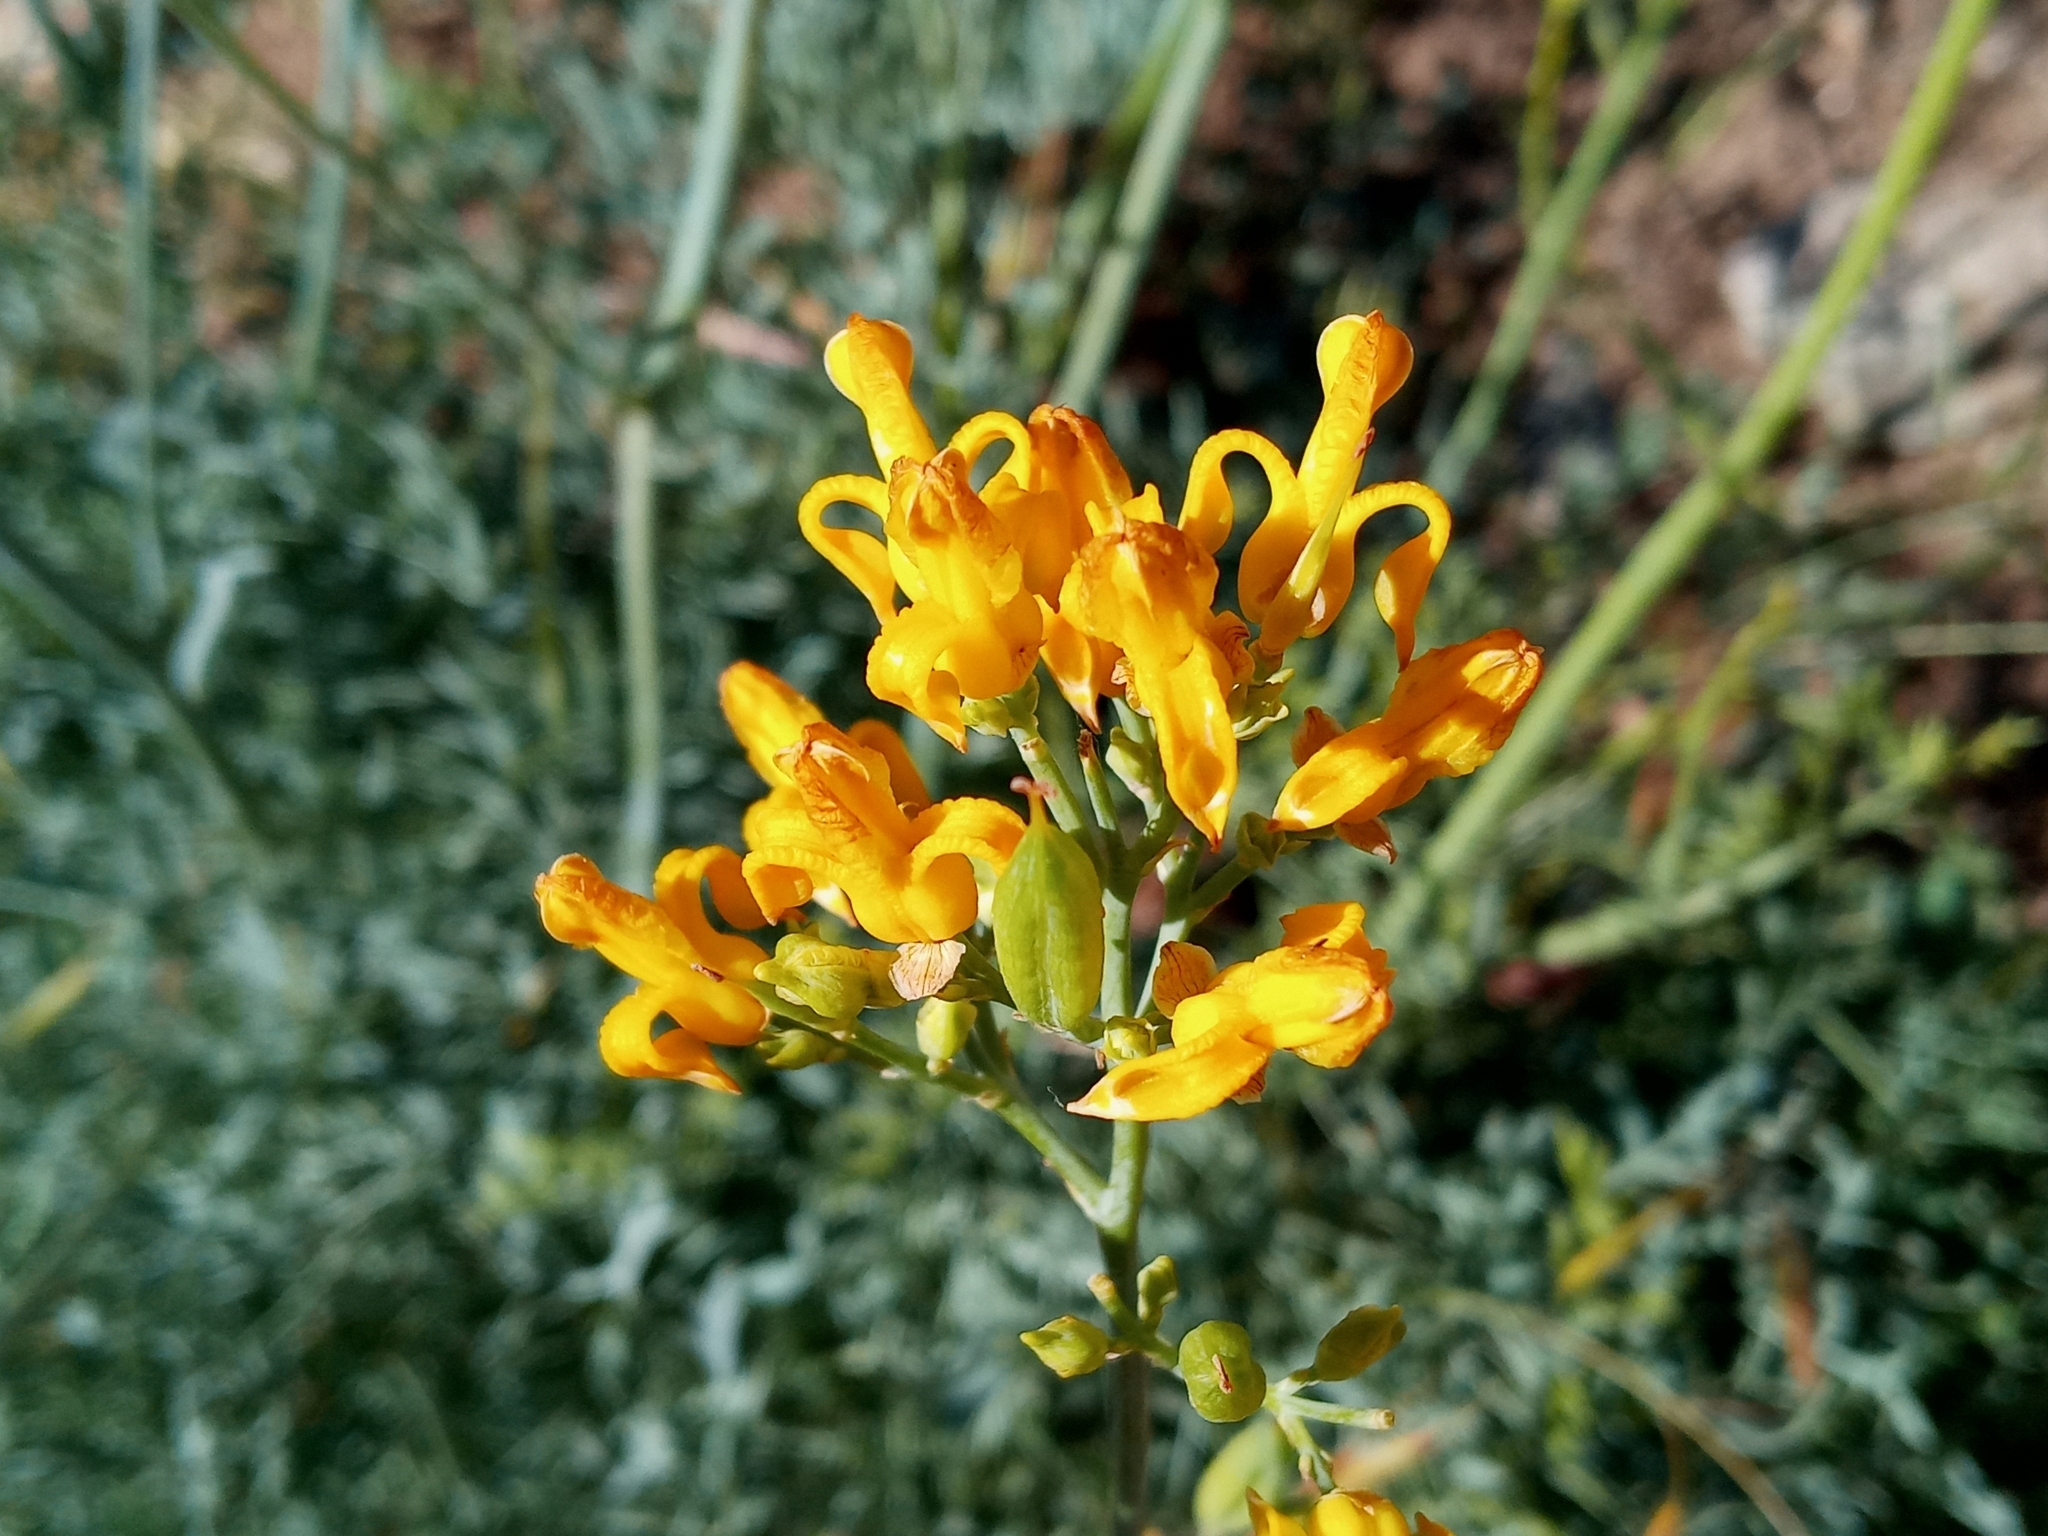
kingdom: Plantae
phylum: Tracheophyta
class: Magnoliopsida
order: Ranunculales
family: Papaveraceae
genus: Ehrendorferia
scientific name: Ehrendorferia chrysantha
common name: Golden eardrops
